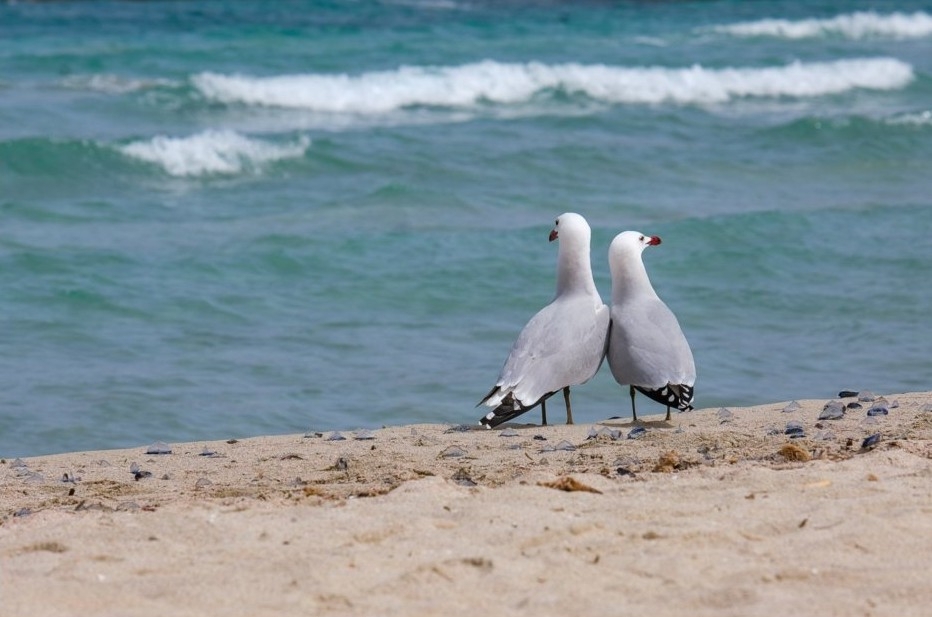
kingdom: Animalia
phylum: Chordata
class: Aves
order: Charadriiformes
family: Laridae
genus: Ichthyaetus
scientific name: Ichthyaetus audouinii
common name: Audouin's gull
